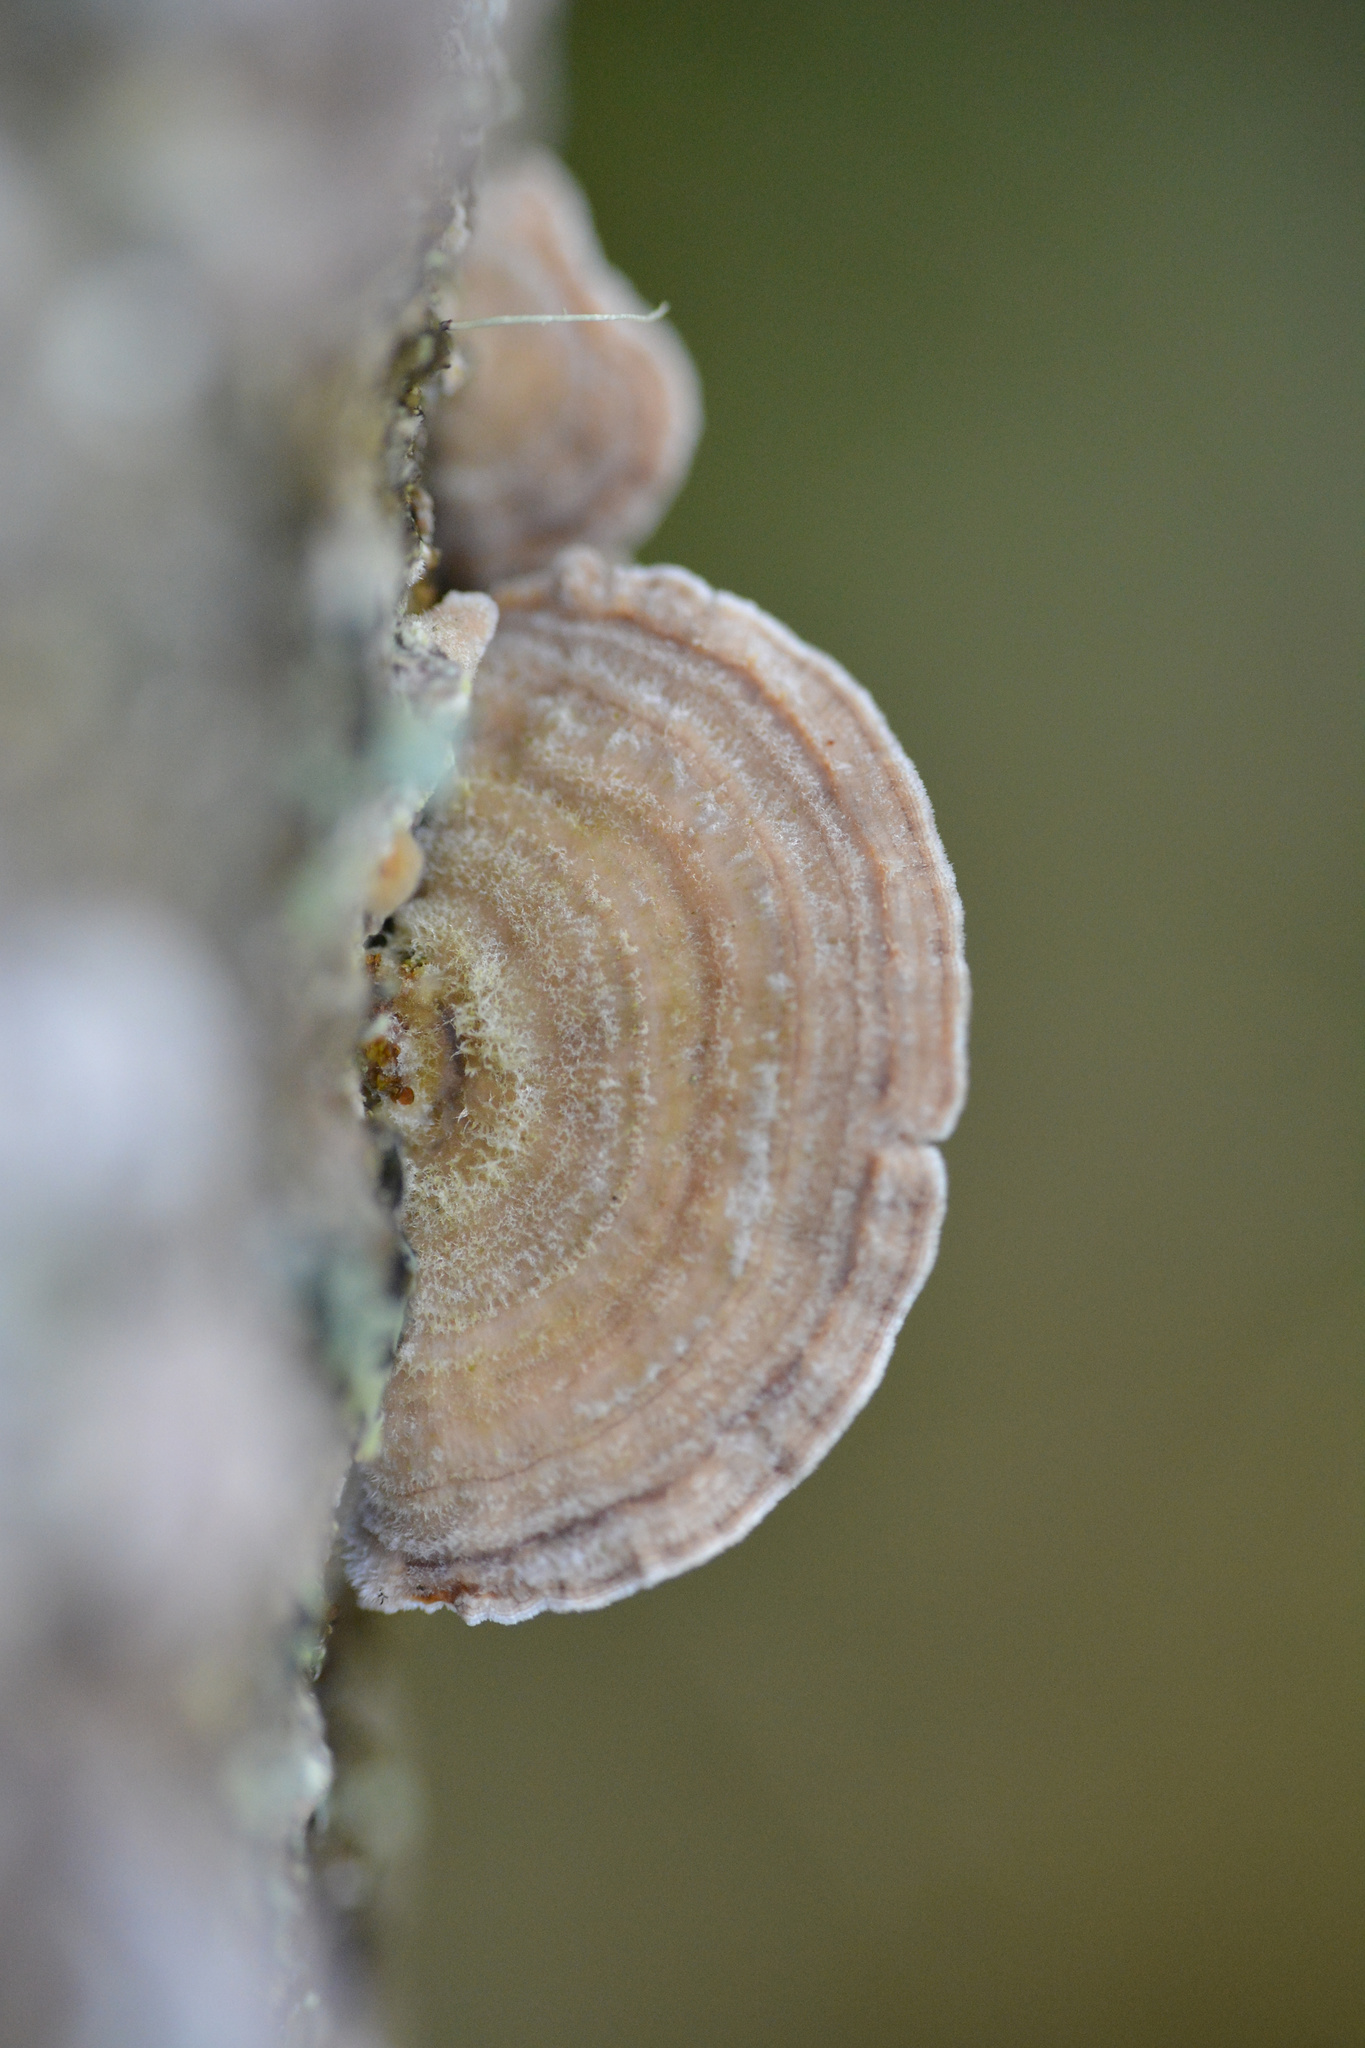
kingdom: Fungi
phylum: Basidiomycota
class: Agaricomycetes
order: Polyporales
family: Polyporaceae
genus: Trametes
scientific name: Trametes hirsuta
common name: Hairy bracket
